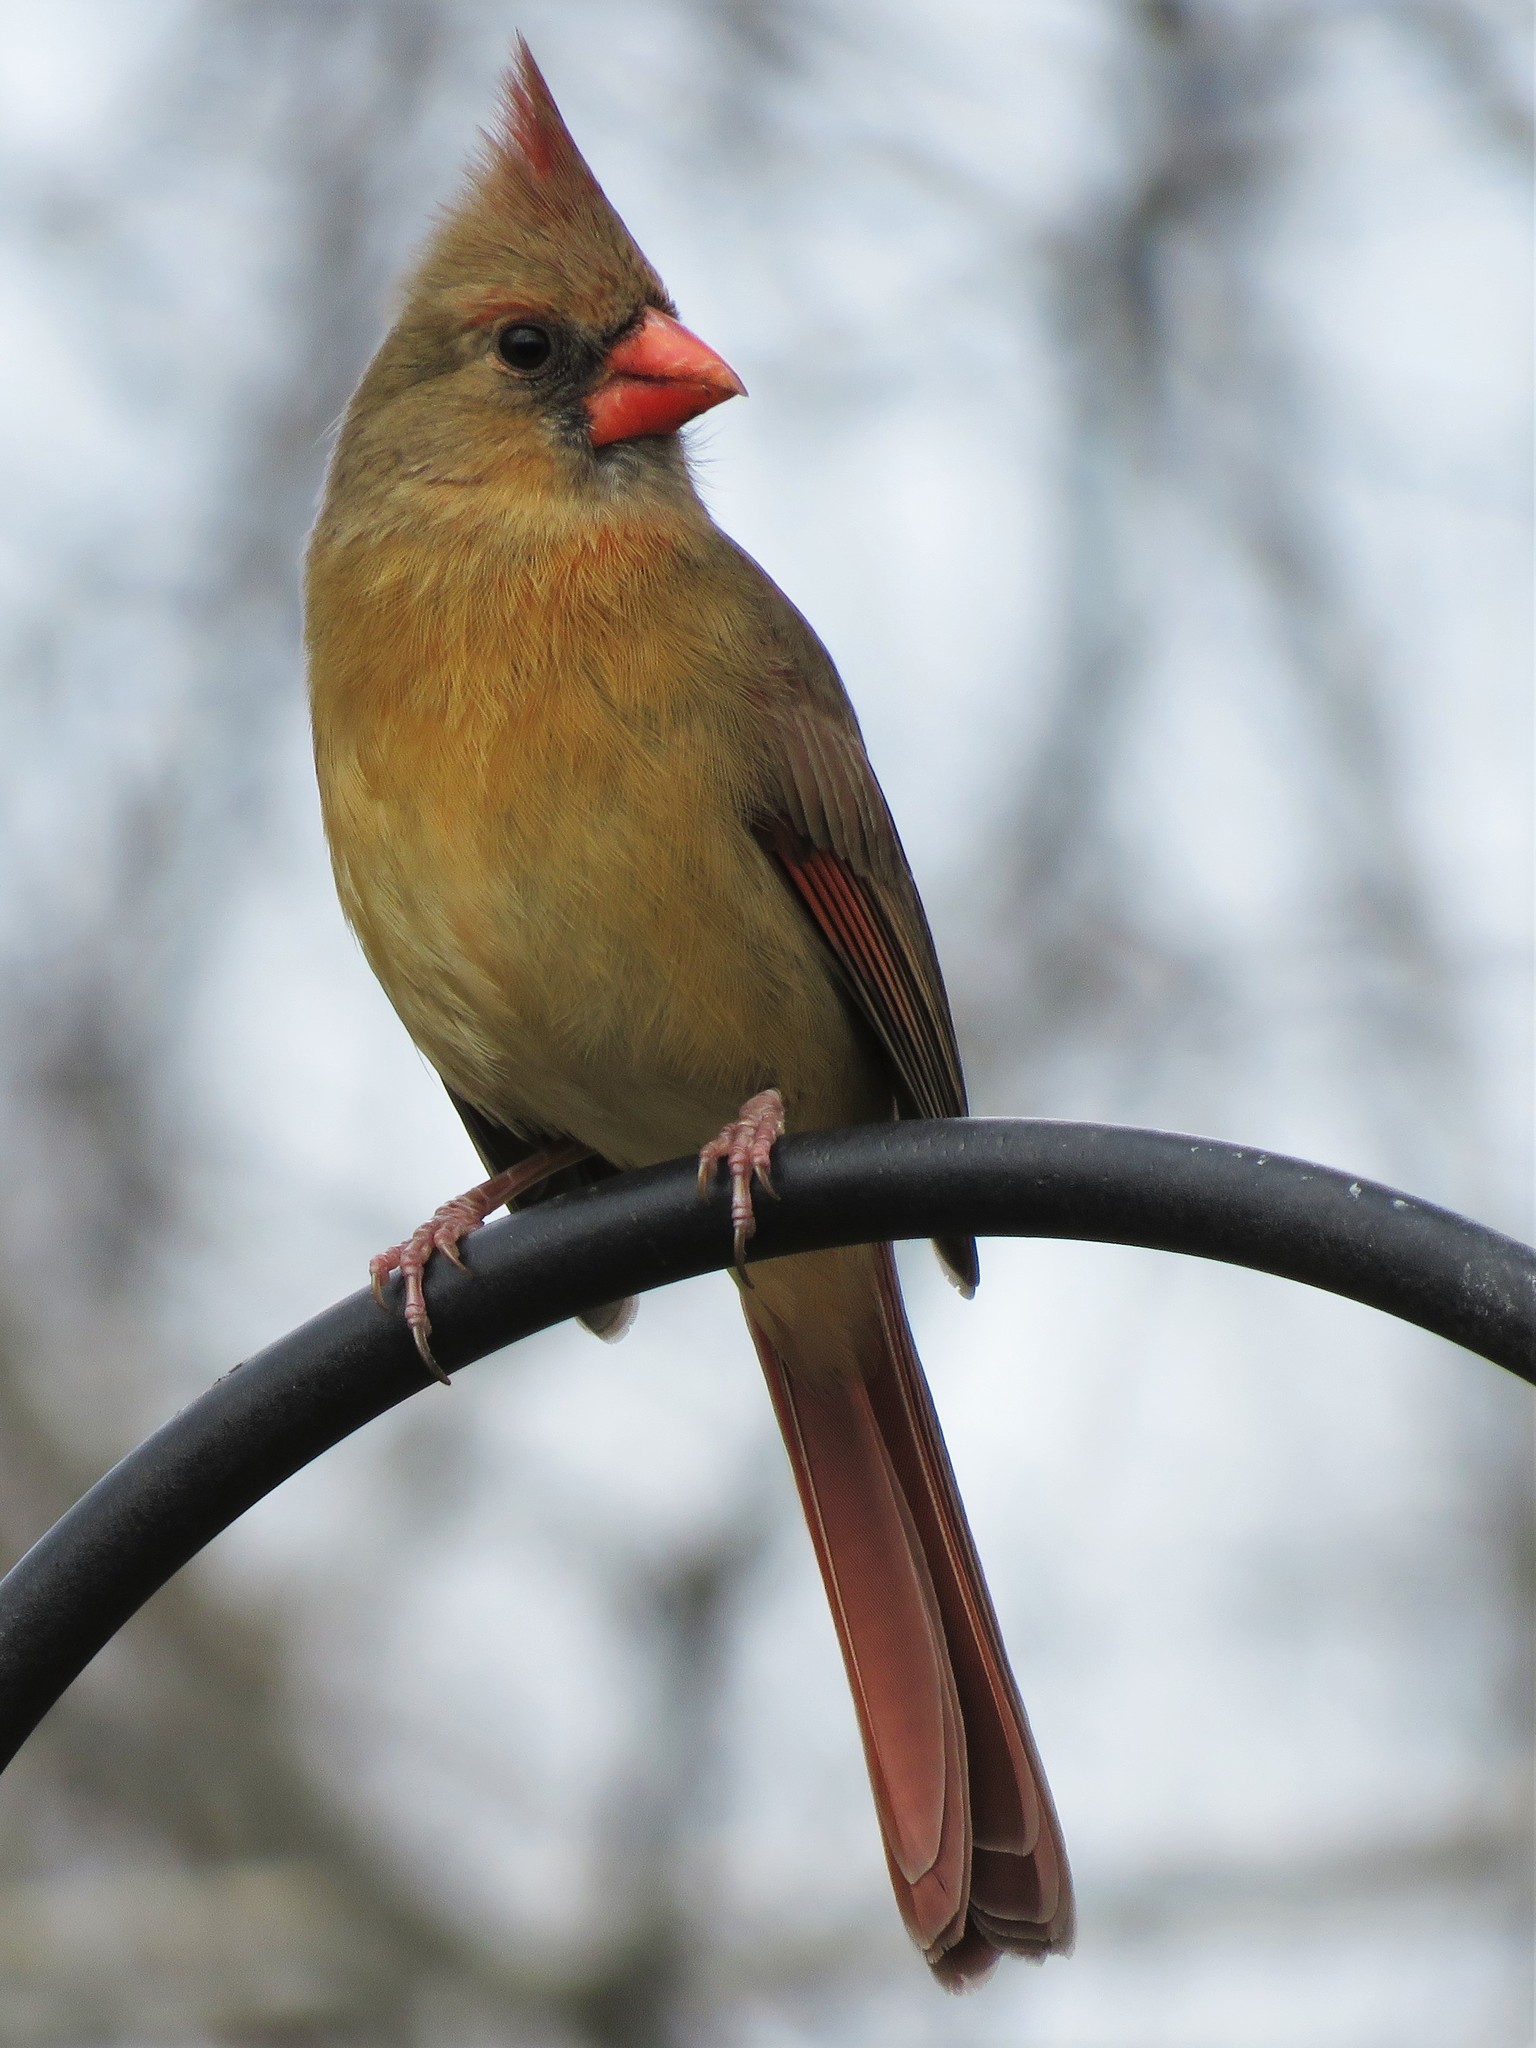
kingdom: Animalia
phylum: Chordata
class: Aves
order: Passeriformes
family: Cardinalidae
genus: Cardinalis
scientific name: Cardinalis cardinalis
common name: Northern cardinal
